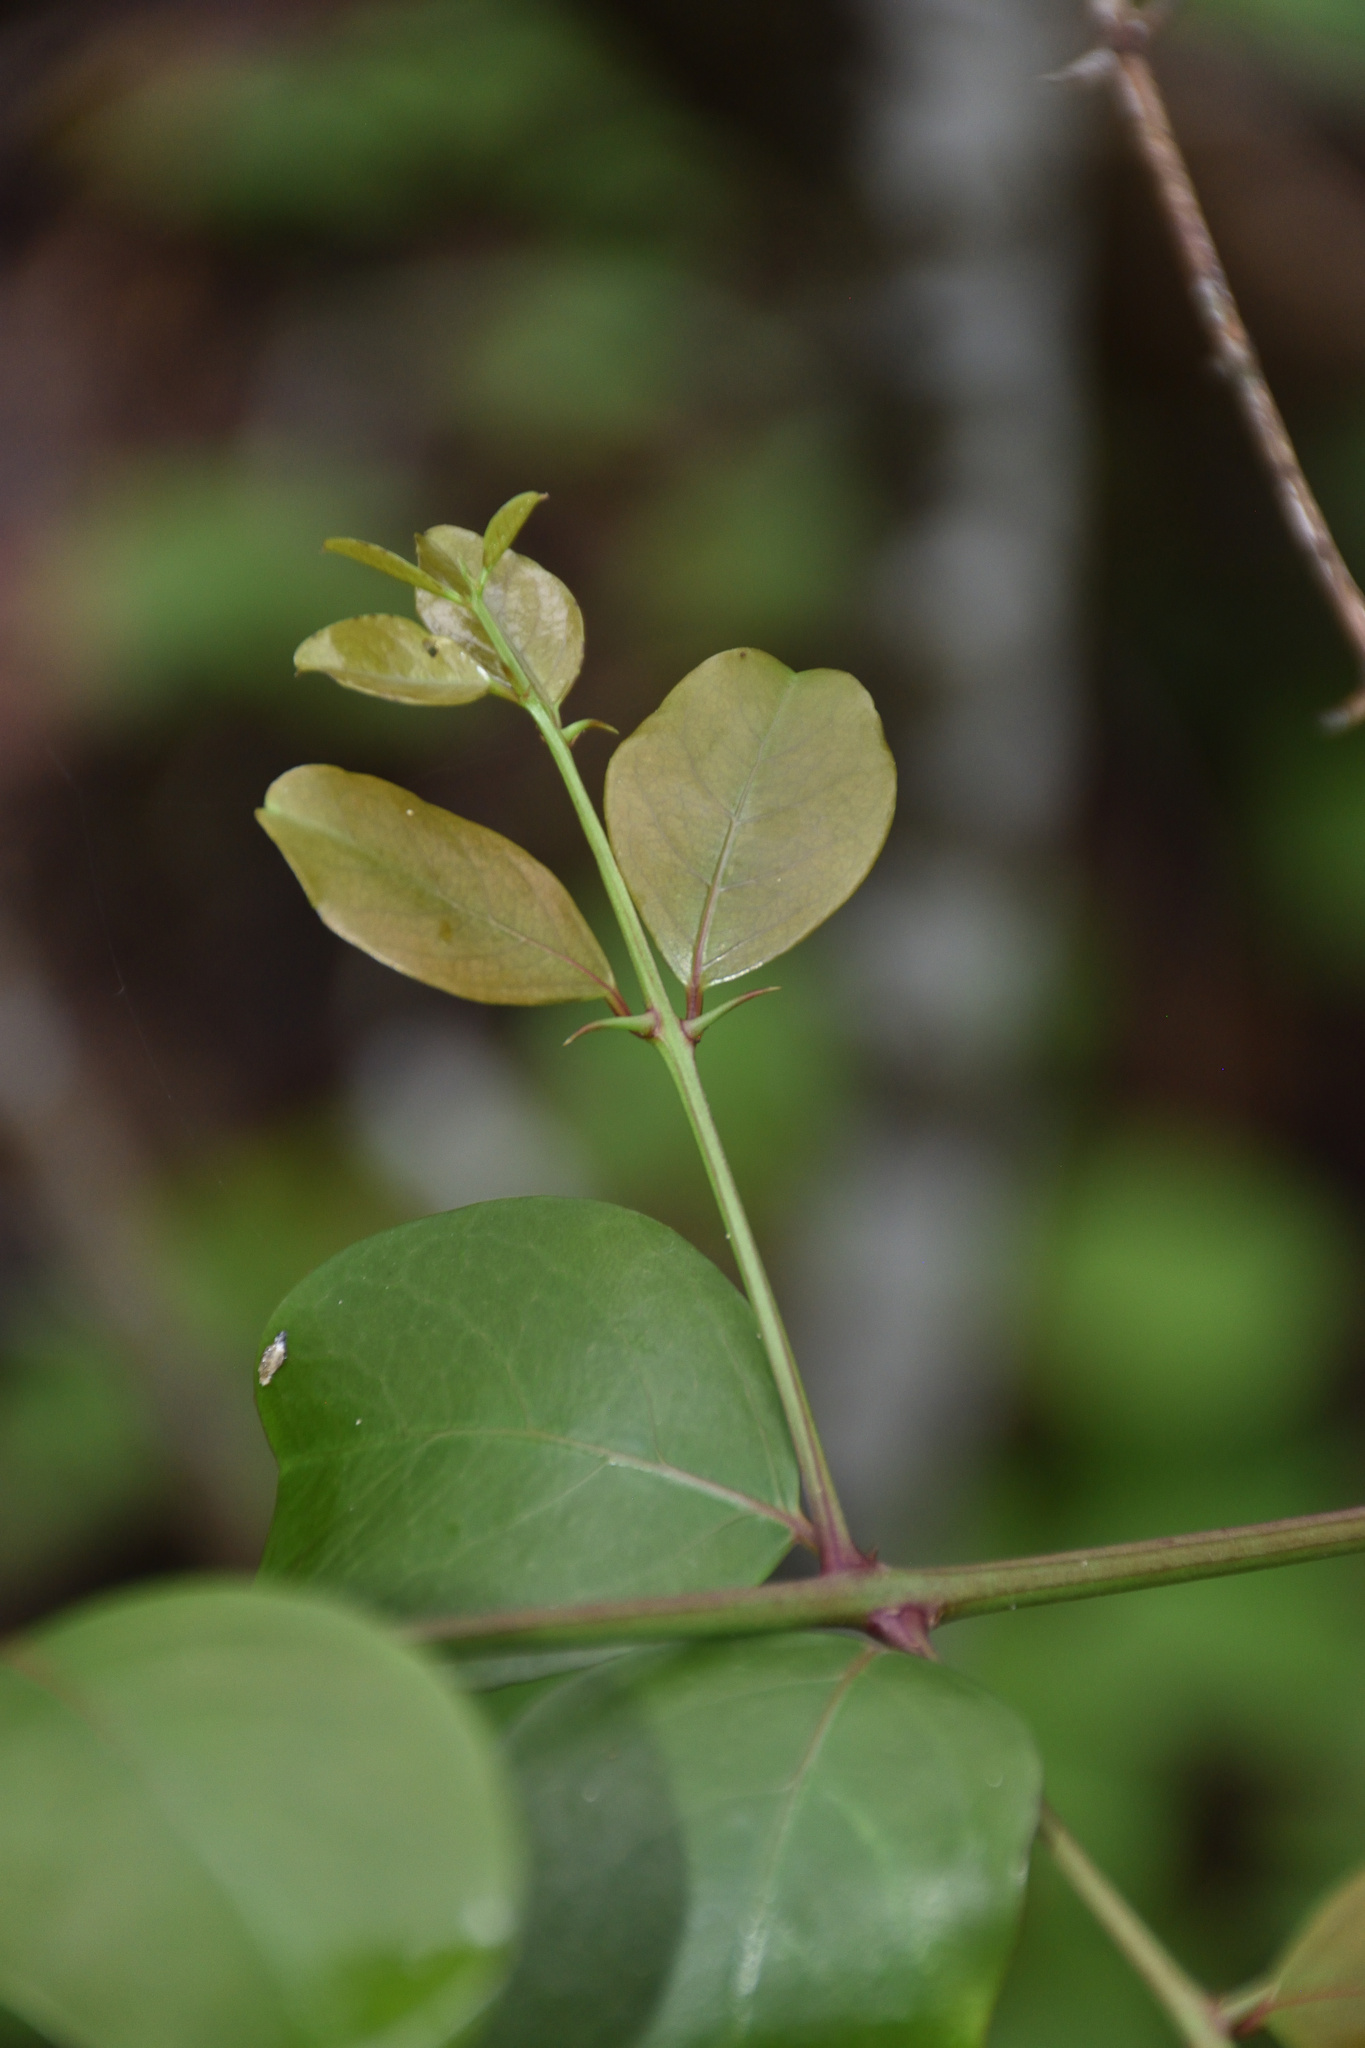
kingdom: Plantae
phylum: Tracheophyta
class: Magnoliopsida
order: Rosales
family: Rhamnaceae
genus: Scutia
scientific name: Scutia myrtina
